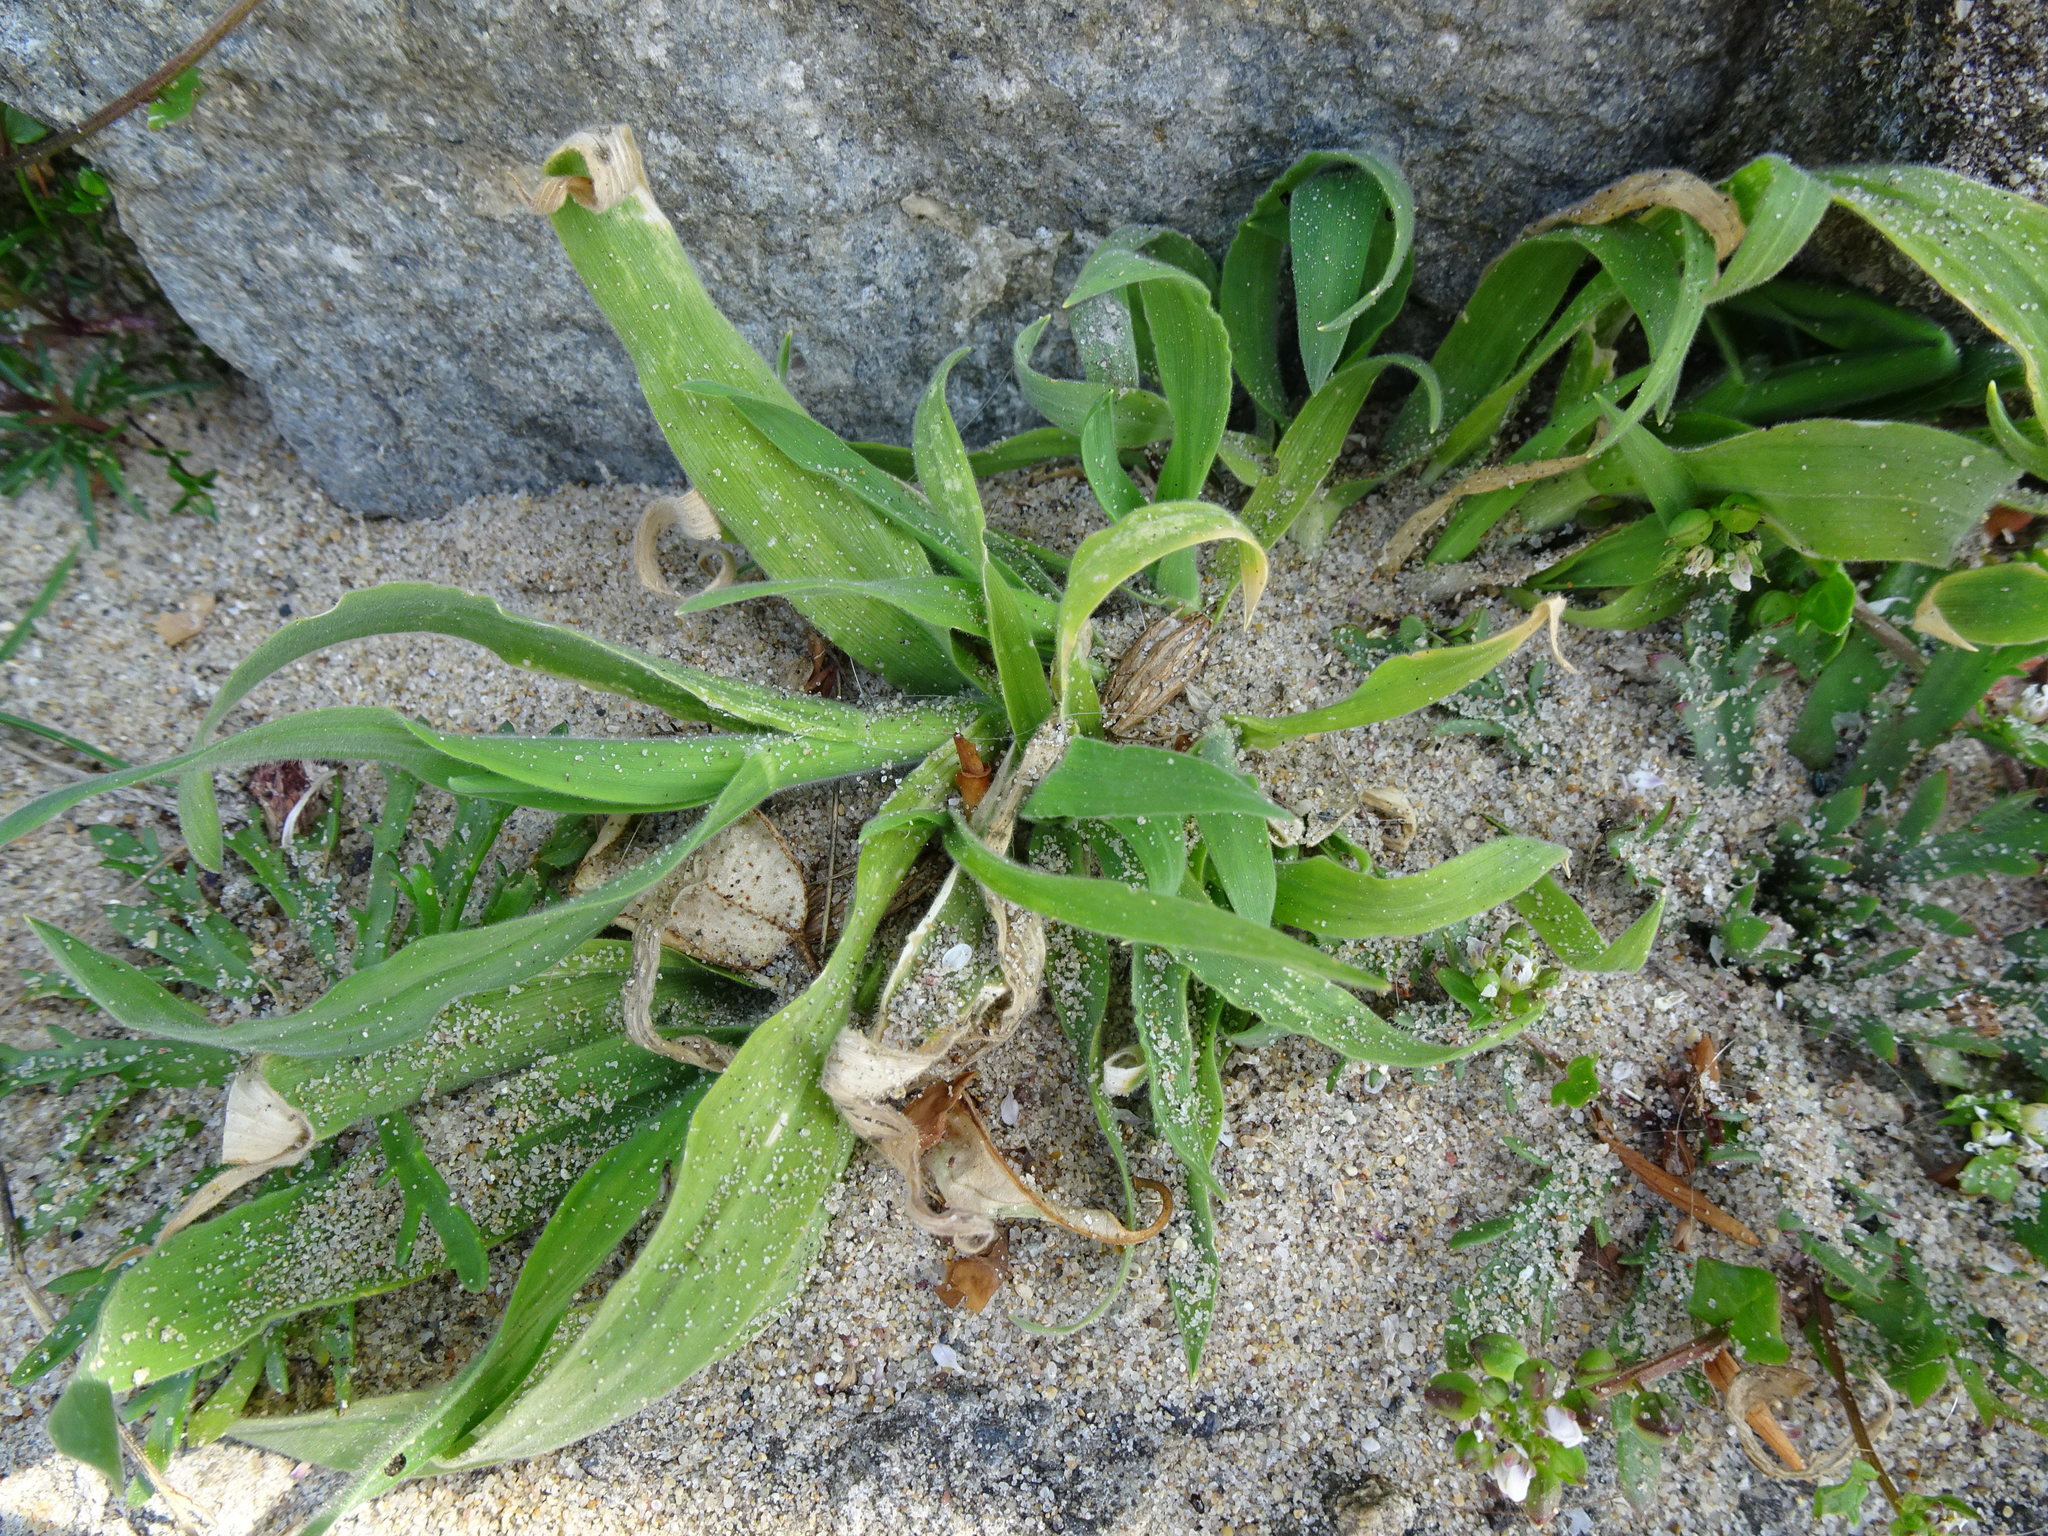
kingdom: Plantae
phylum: Tracheophyta
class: Liliopsida
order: Poales
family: Poaceae
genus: Lagurus
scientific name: Lagurus ovatus
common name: Hare's-tail
